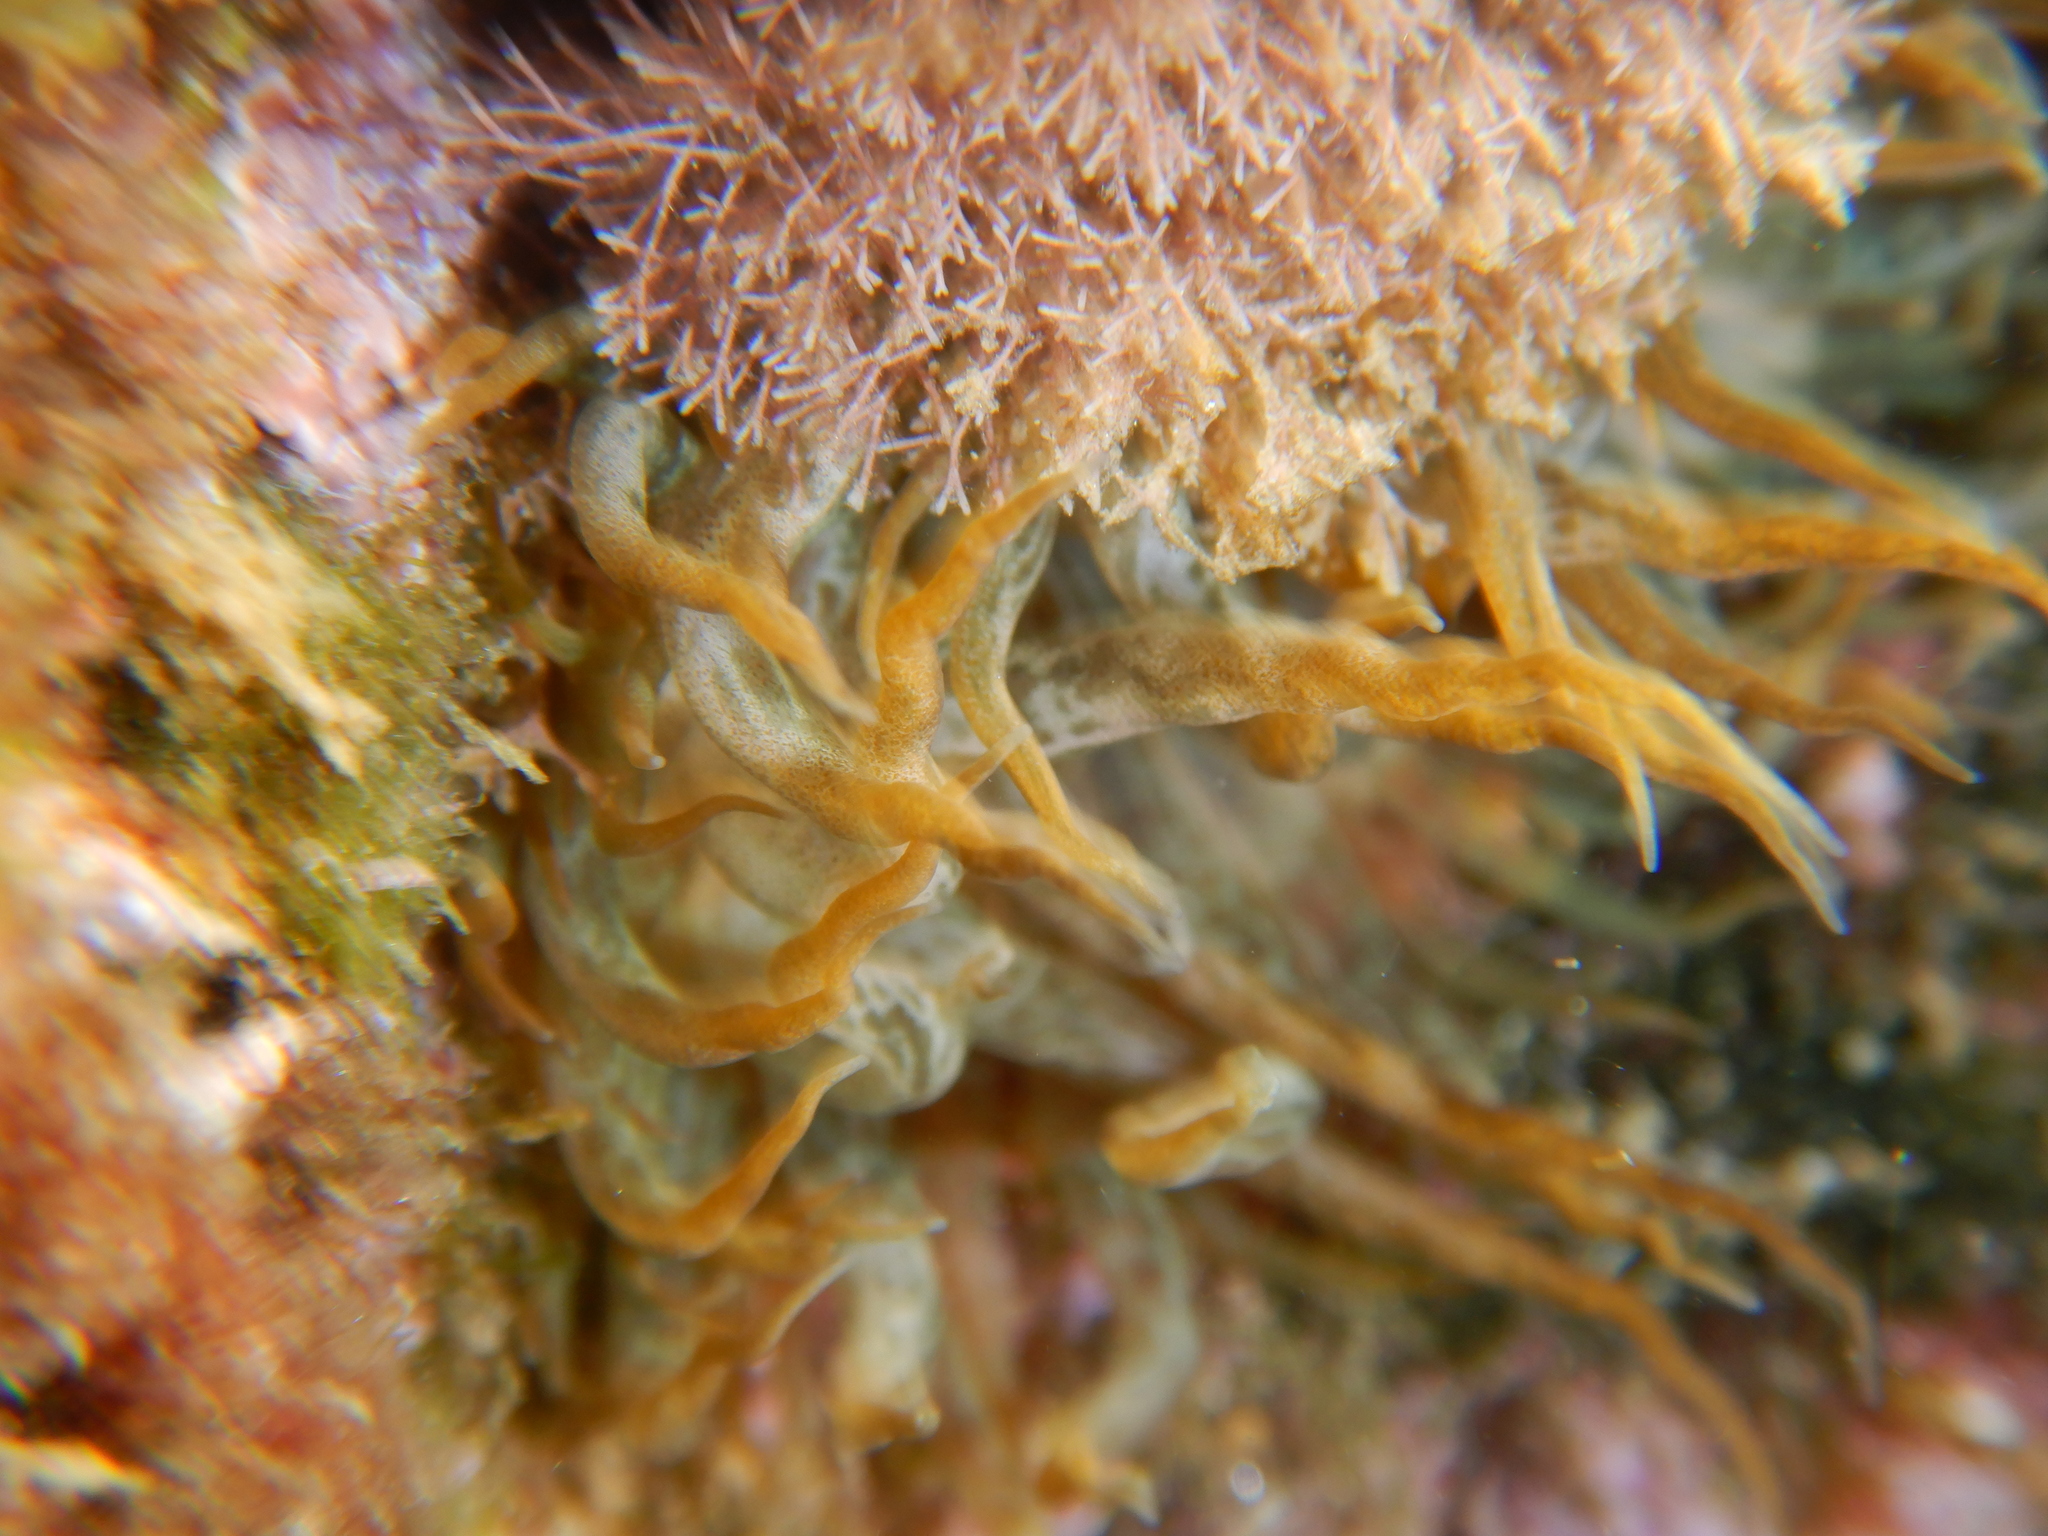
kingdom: Animalia
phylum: Cnidaria
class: Anthozoa
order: Actiniaria
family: Aiptasiidae
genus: Aiptasia
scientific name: Aiptasia mutabilis
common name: Trumpet anemone
